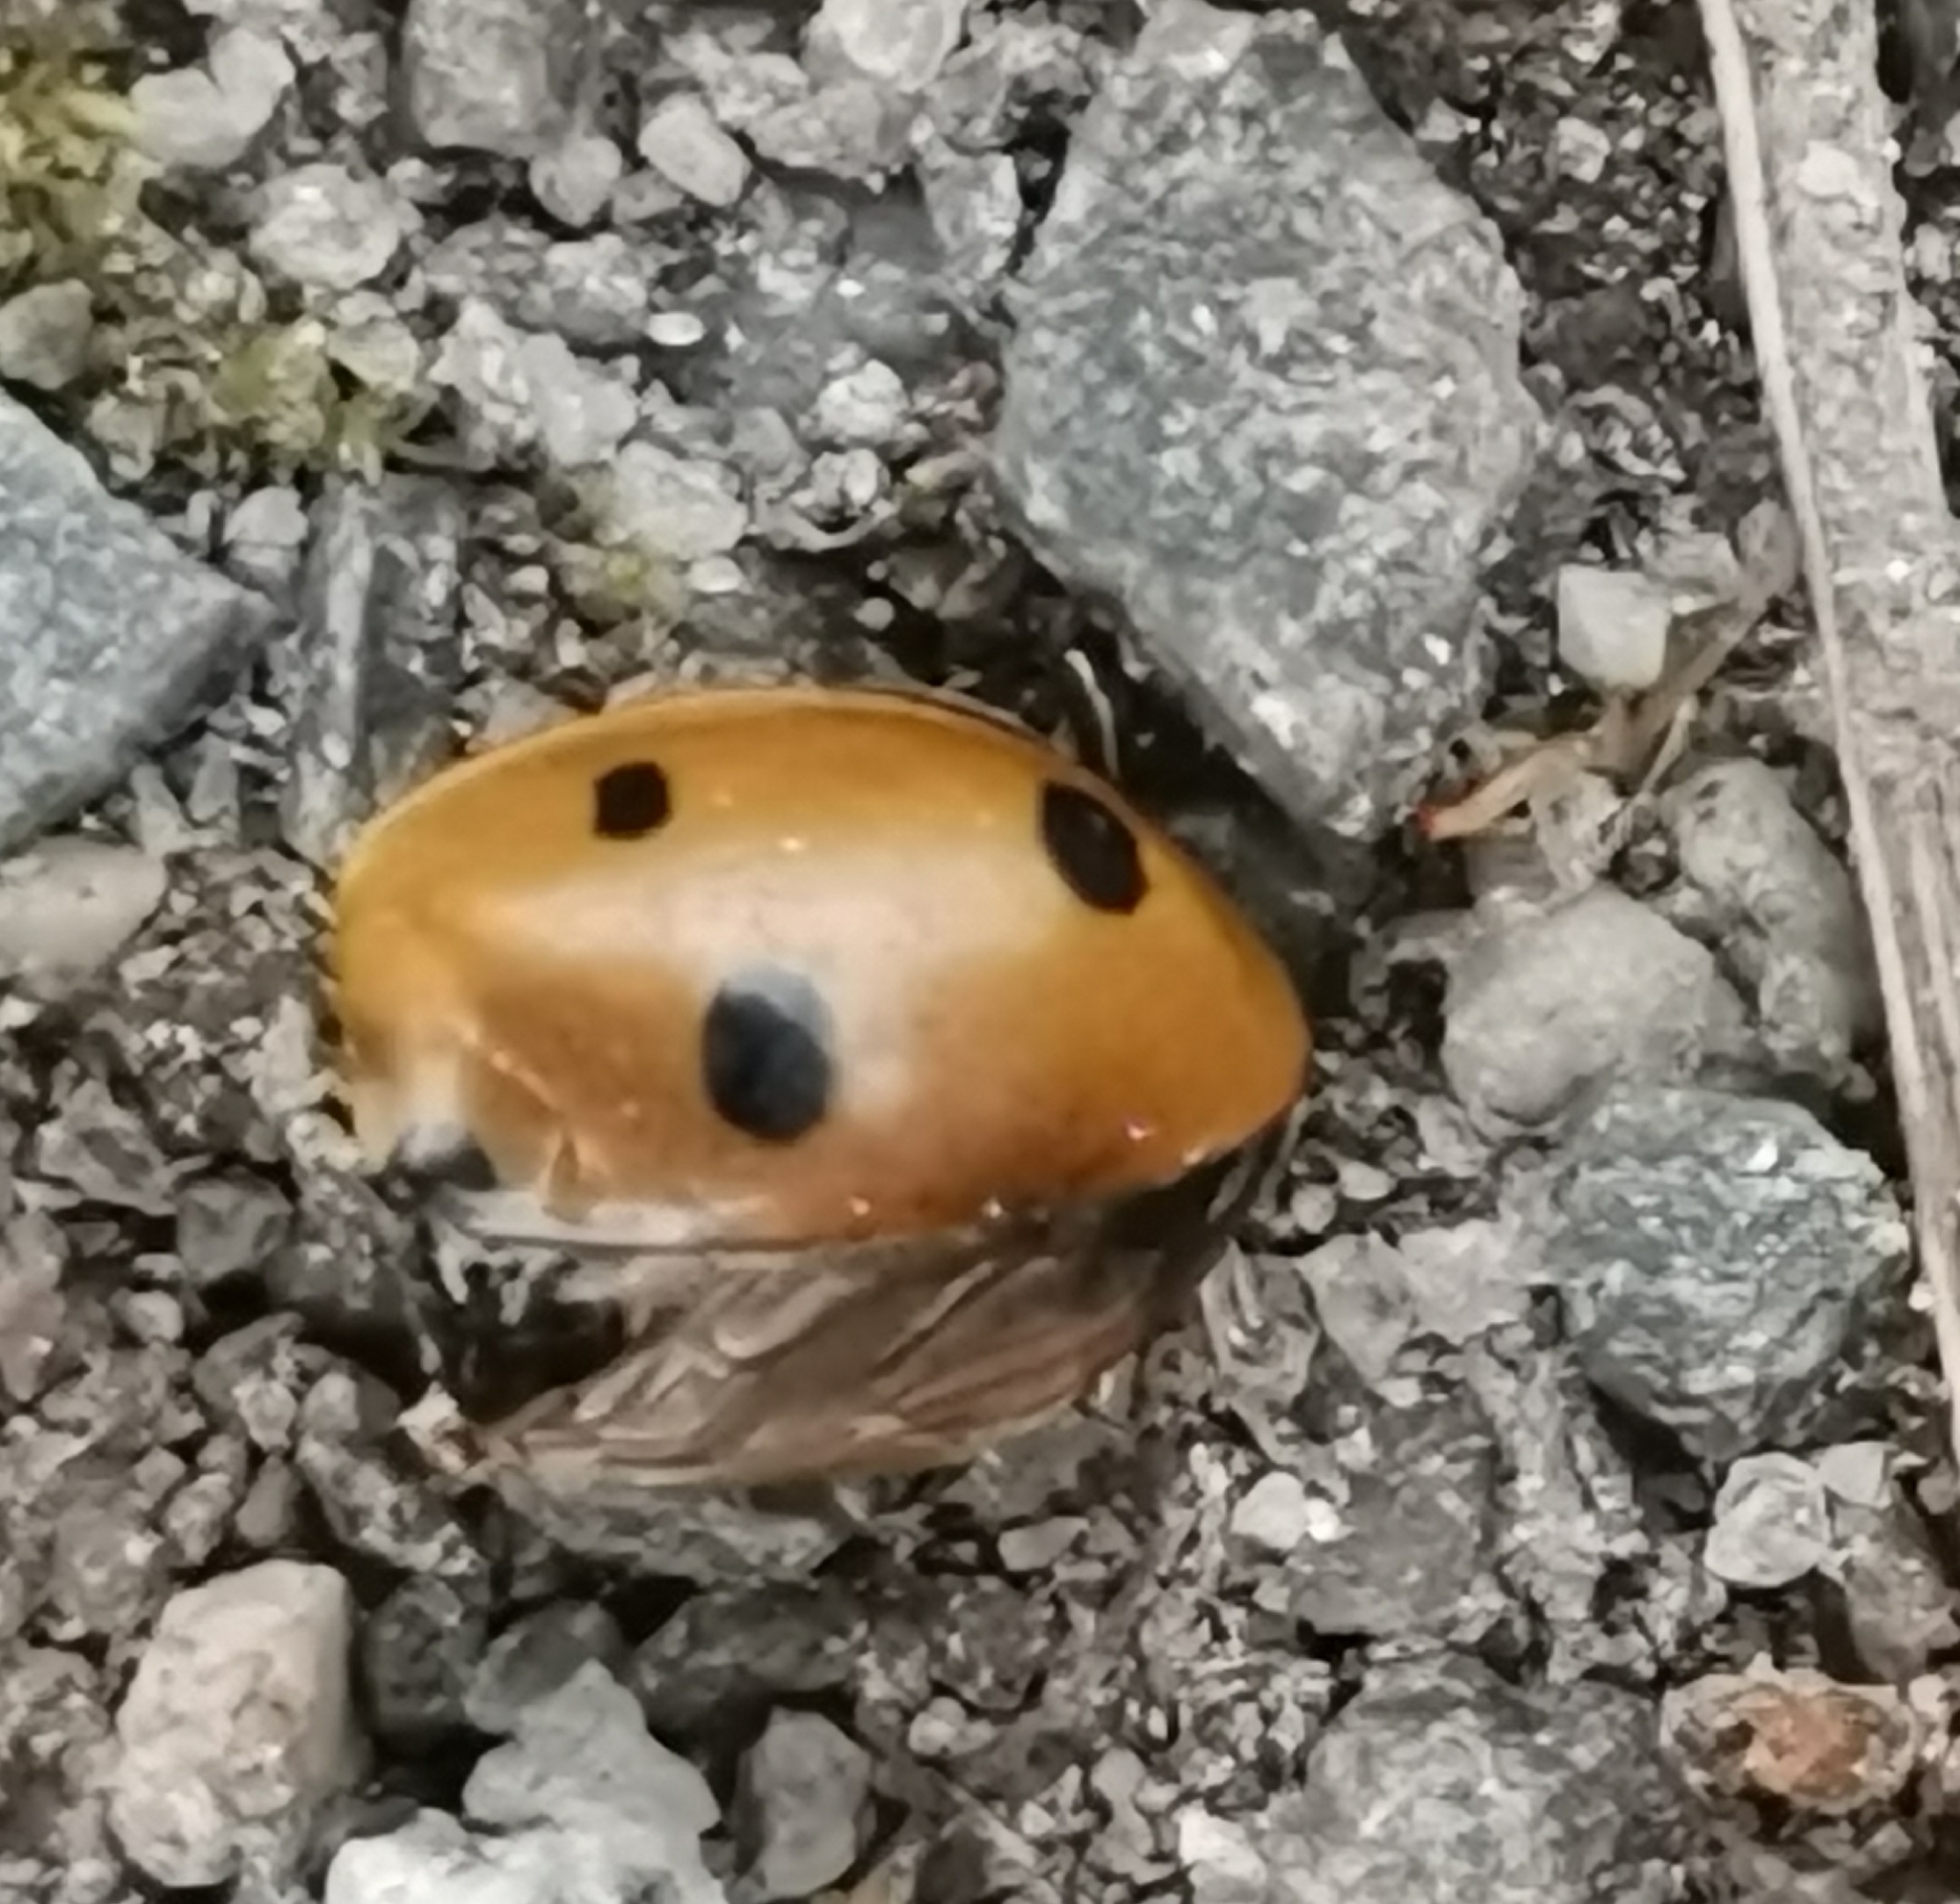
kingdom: Animalia
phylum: Arthropoda
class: Insecta
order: Coleoptera
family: Coccinellidae
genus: Coccinella
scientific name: Coccinella septempunctata
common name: Sevenspotted lady beetle
